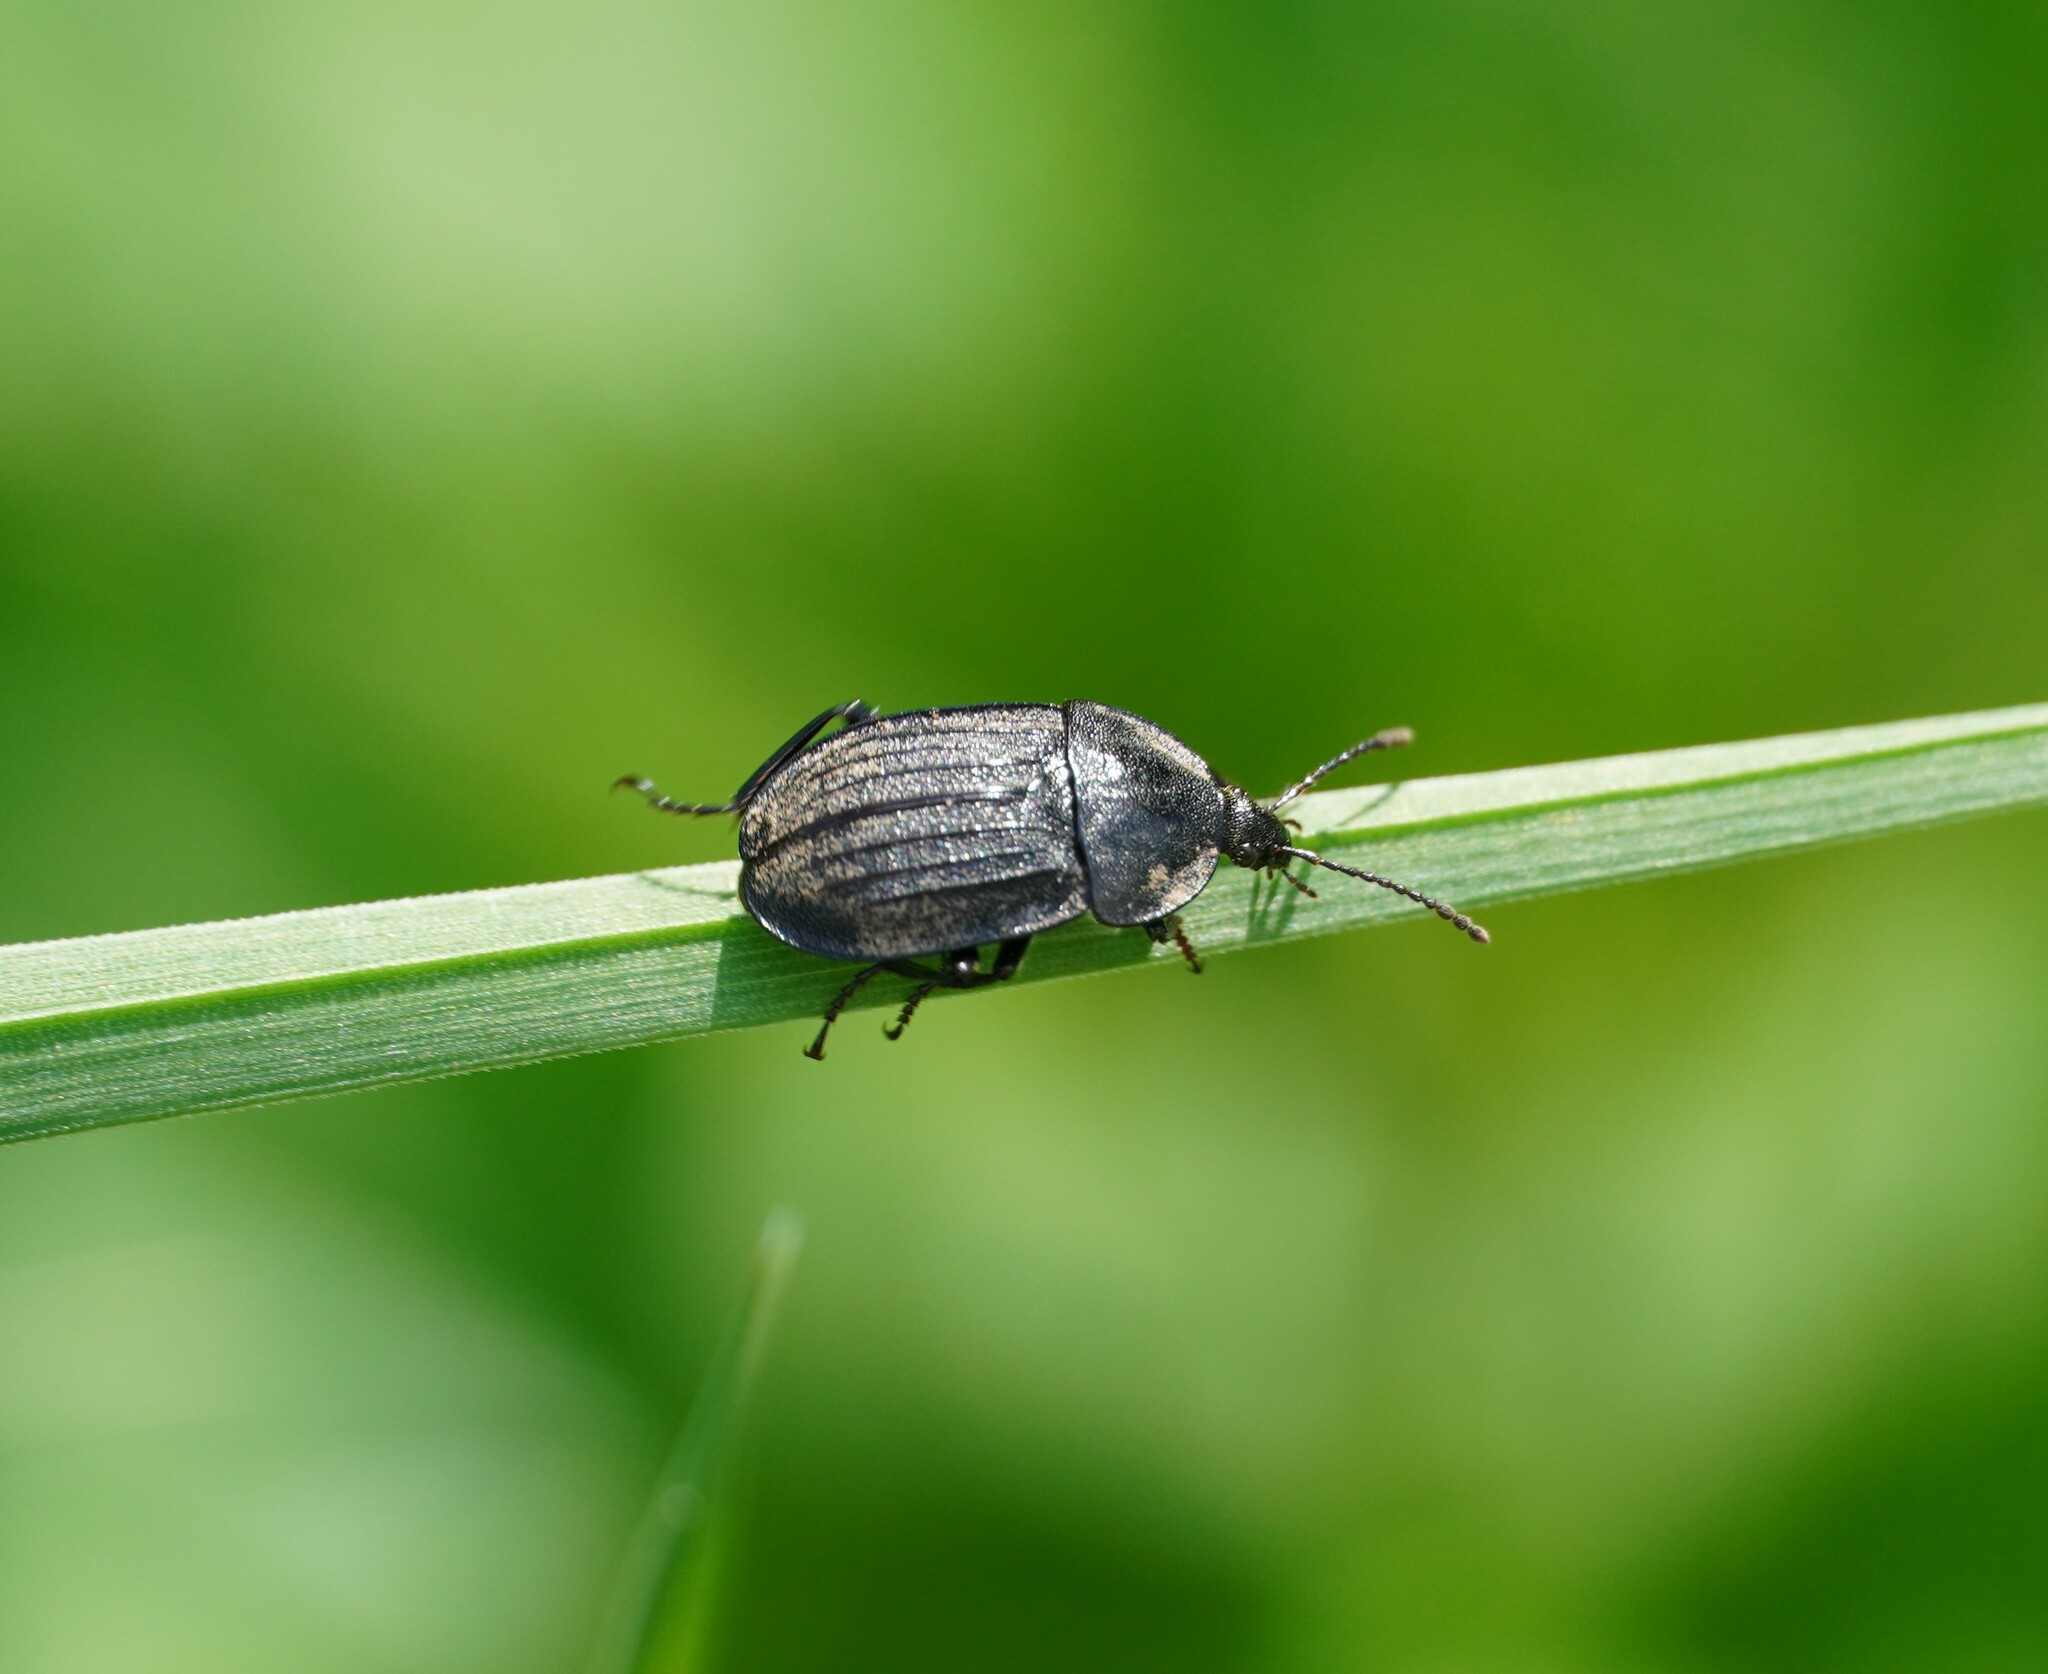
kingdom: Animalia
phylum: Arthropoda
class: Insecta
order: Coleoptera
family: Staphylinidae
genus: Silpha
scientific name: Silpha atrata
